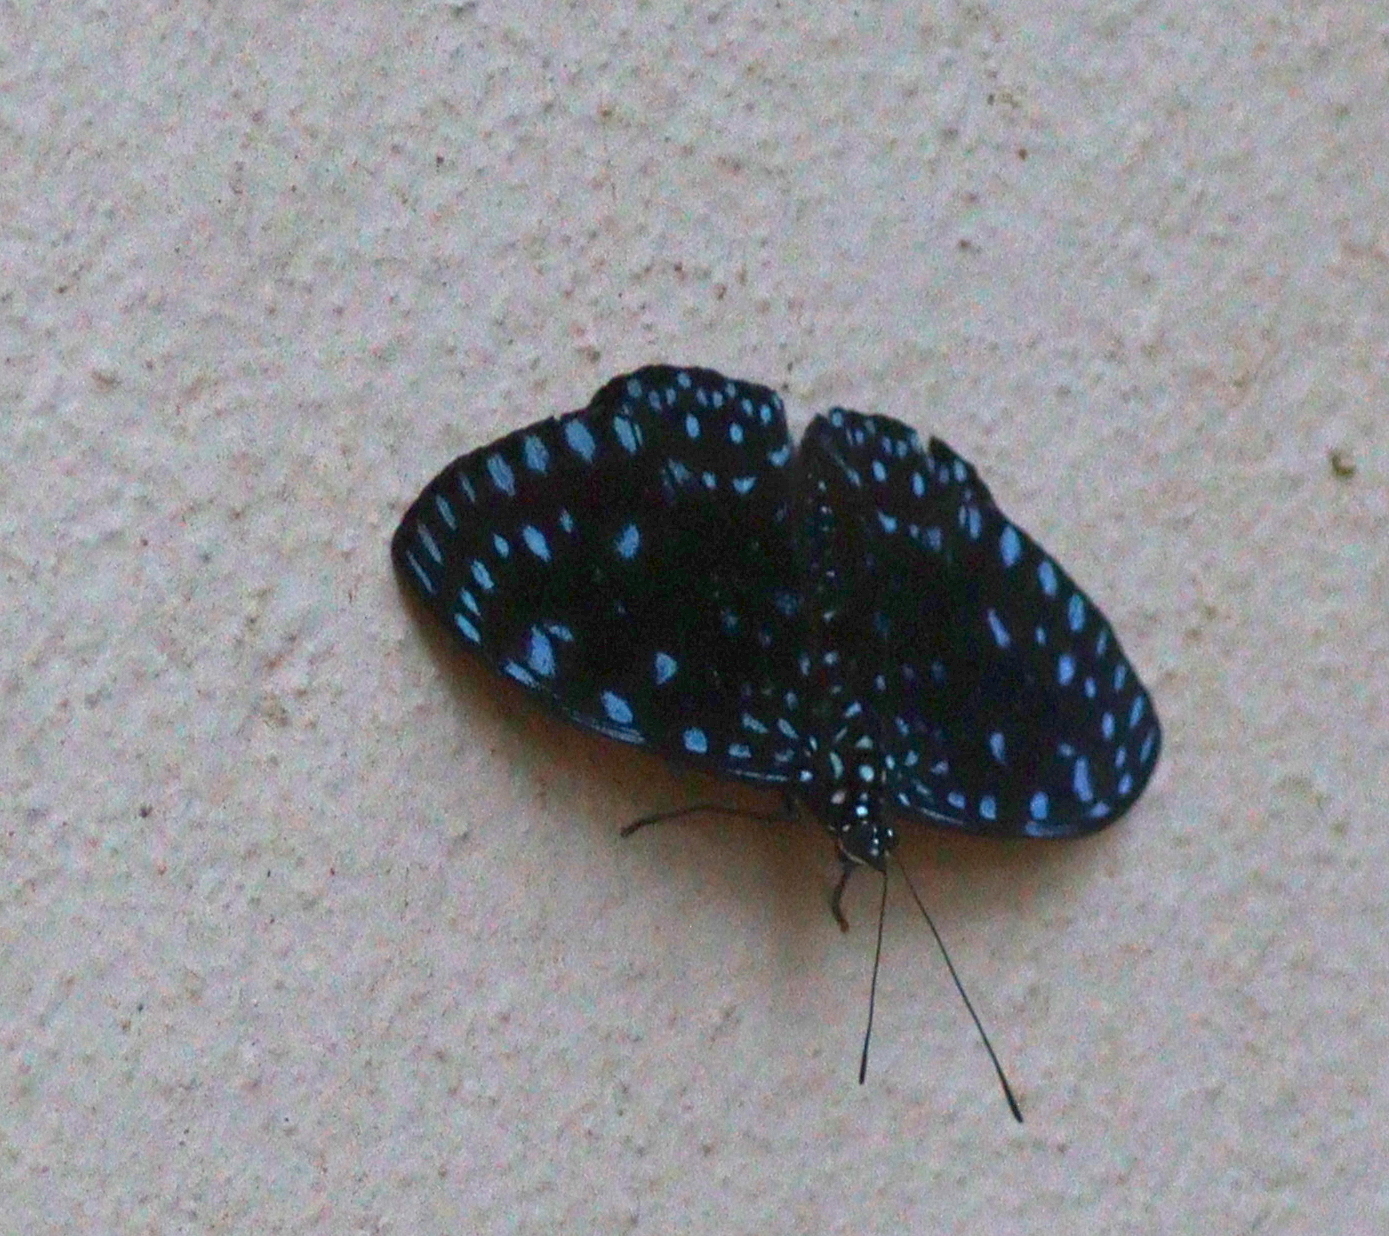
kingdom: Animalia
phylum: Arthropoda
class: Insecta
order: Lepidoptera
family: Nymphalidae
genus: Hamadryas
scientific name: Hamadryas laodamia
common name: Starry night cracker
